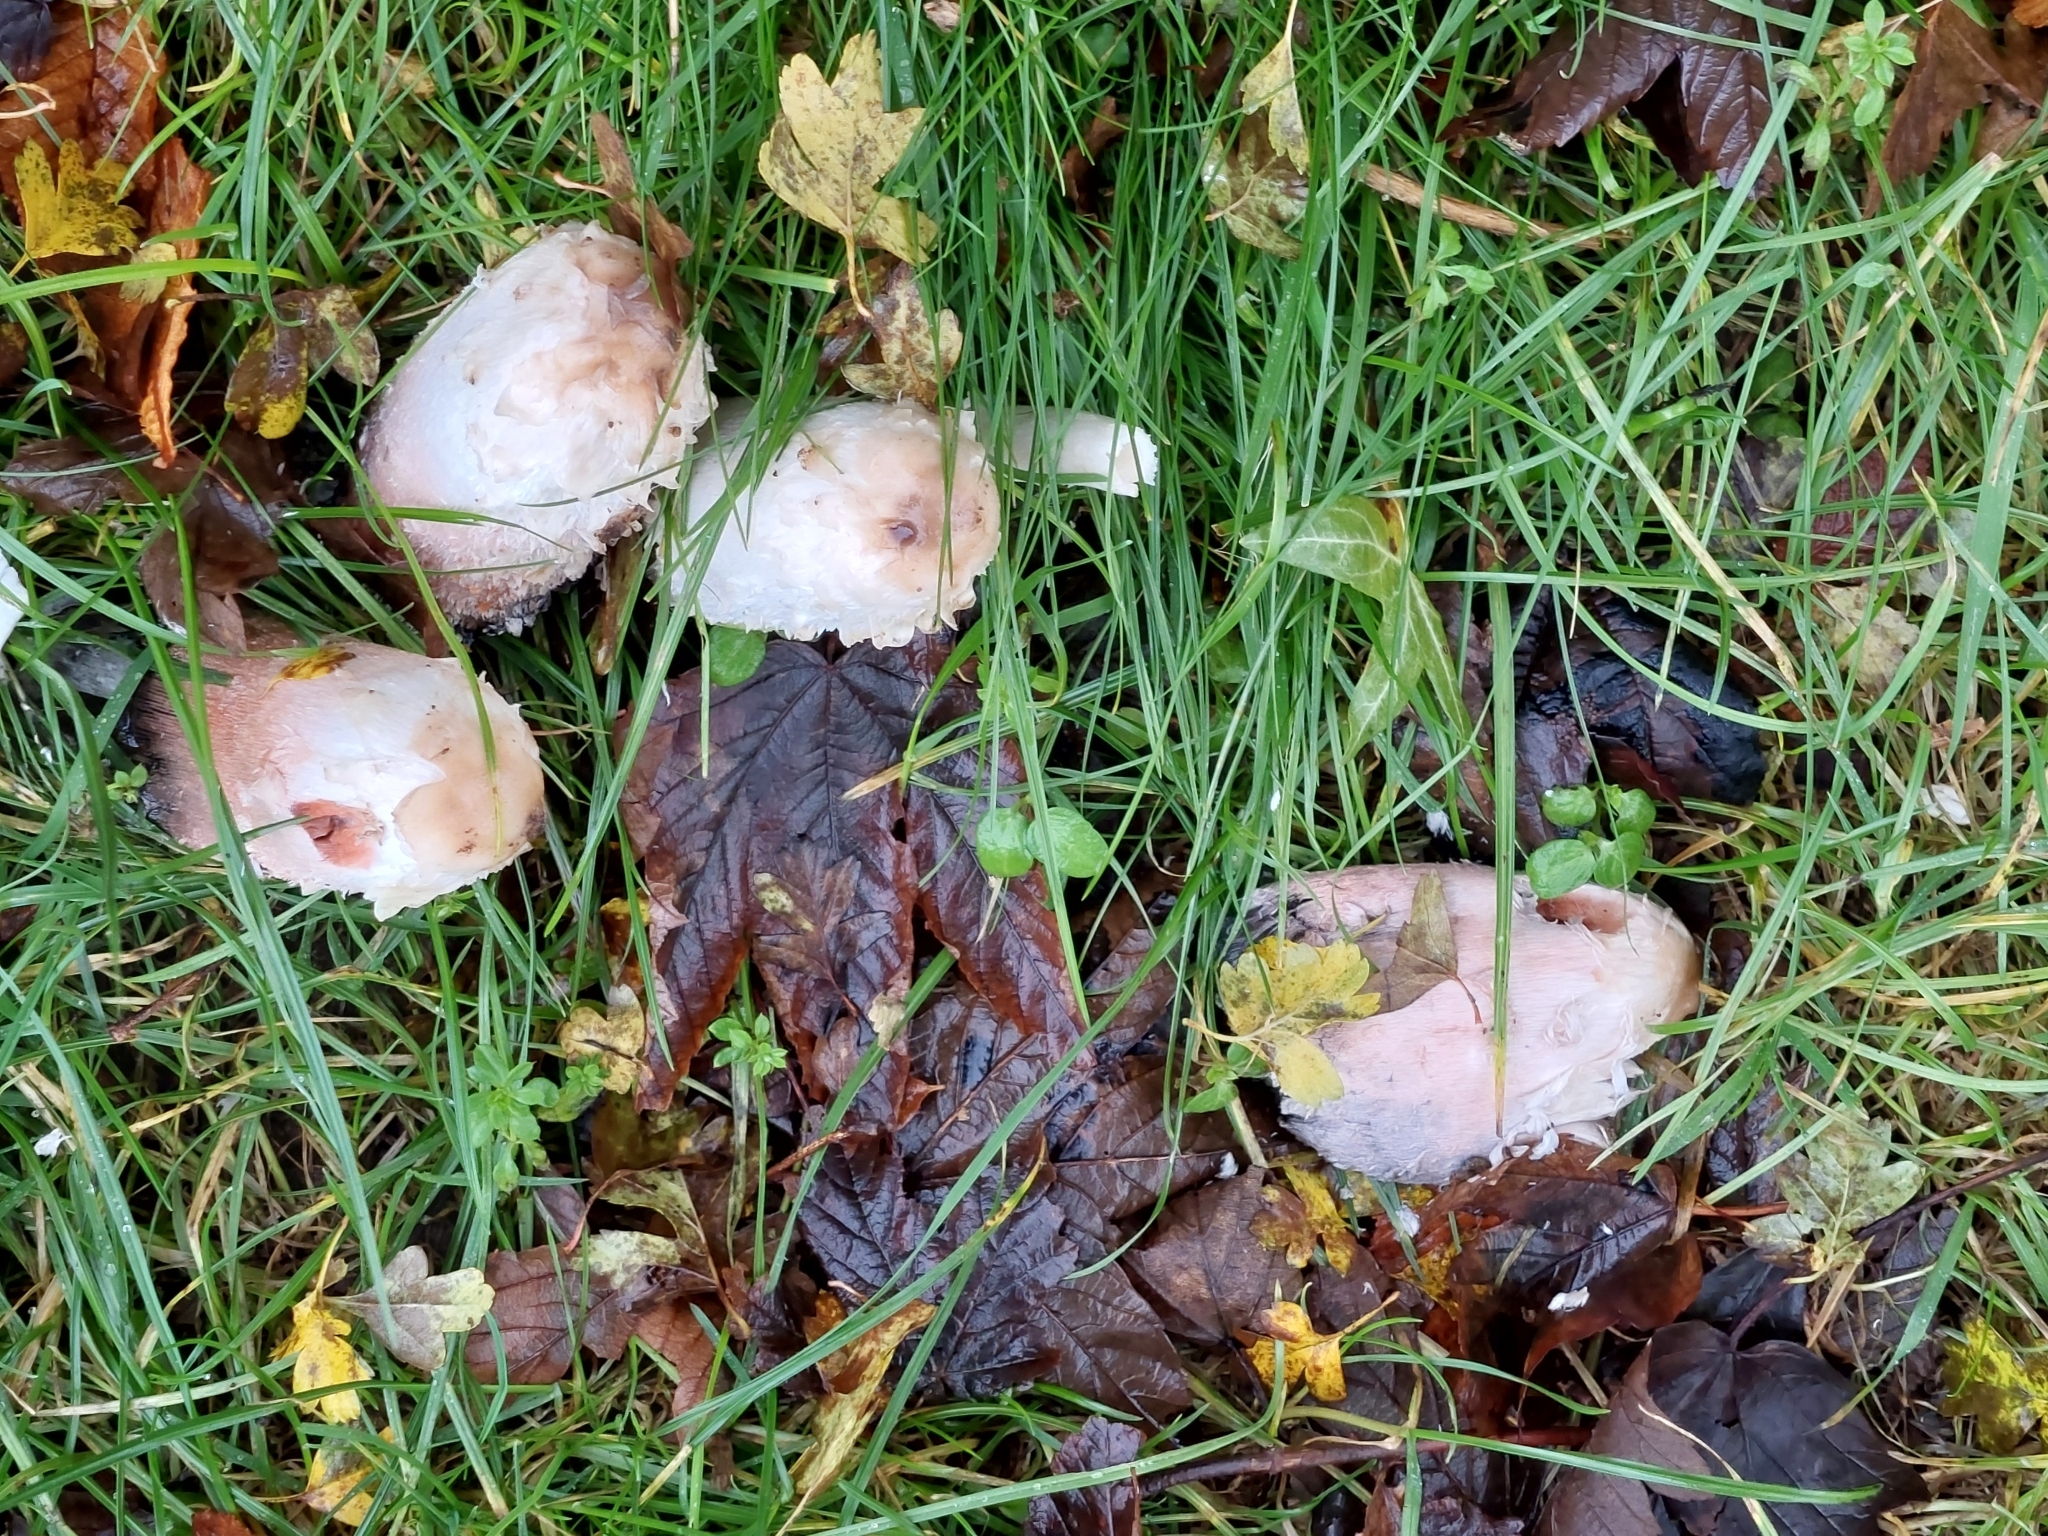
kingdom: Fungi
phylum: Basidiomycota
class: Agaricomycetes
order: Agaricales
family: Agaricaceae
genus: Coprinus
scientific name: Coprinus comatus
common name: Lawyer's wig
